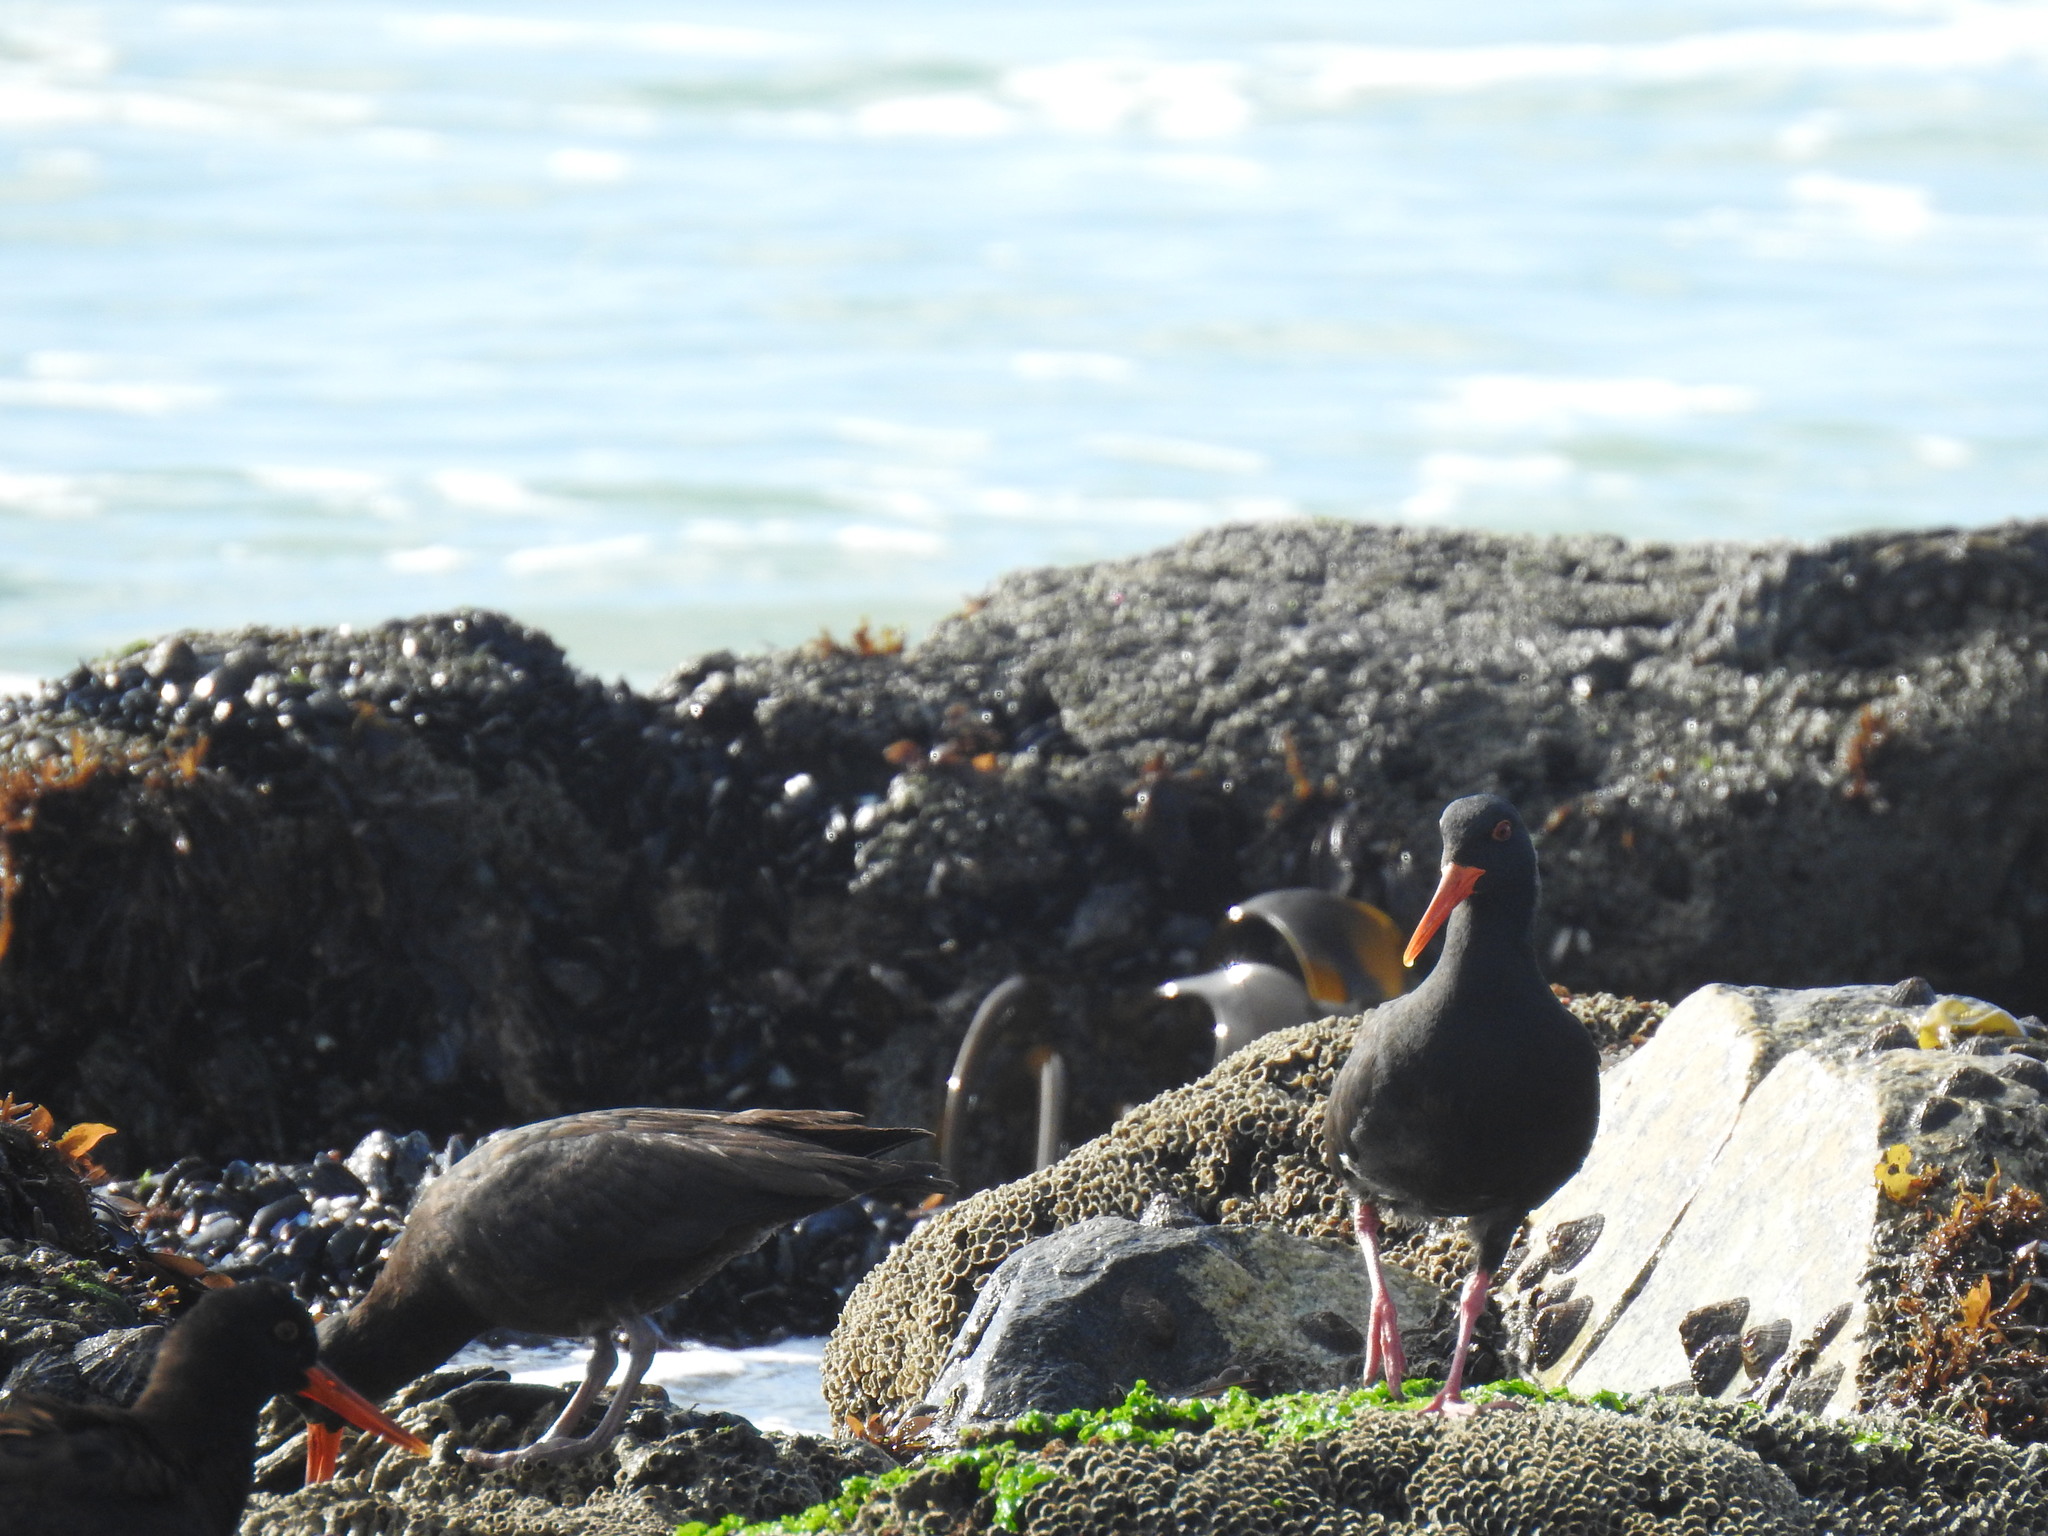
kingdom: Animalia
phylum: Chordata
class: Aves
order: Charadriiformes
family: Haematopodidae
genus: Haematopus
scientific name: Haematopus moquini
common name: African oystercatcher
